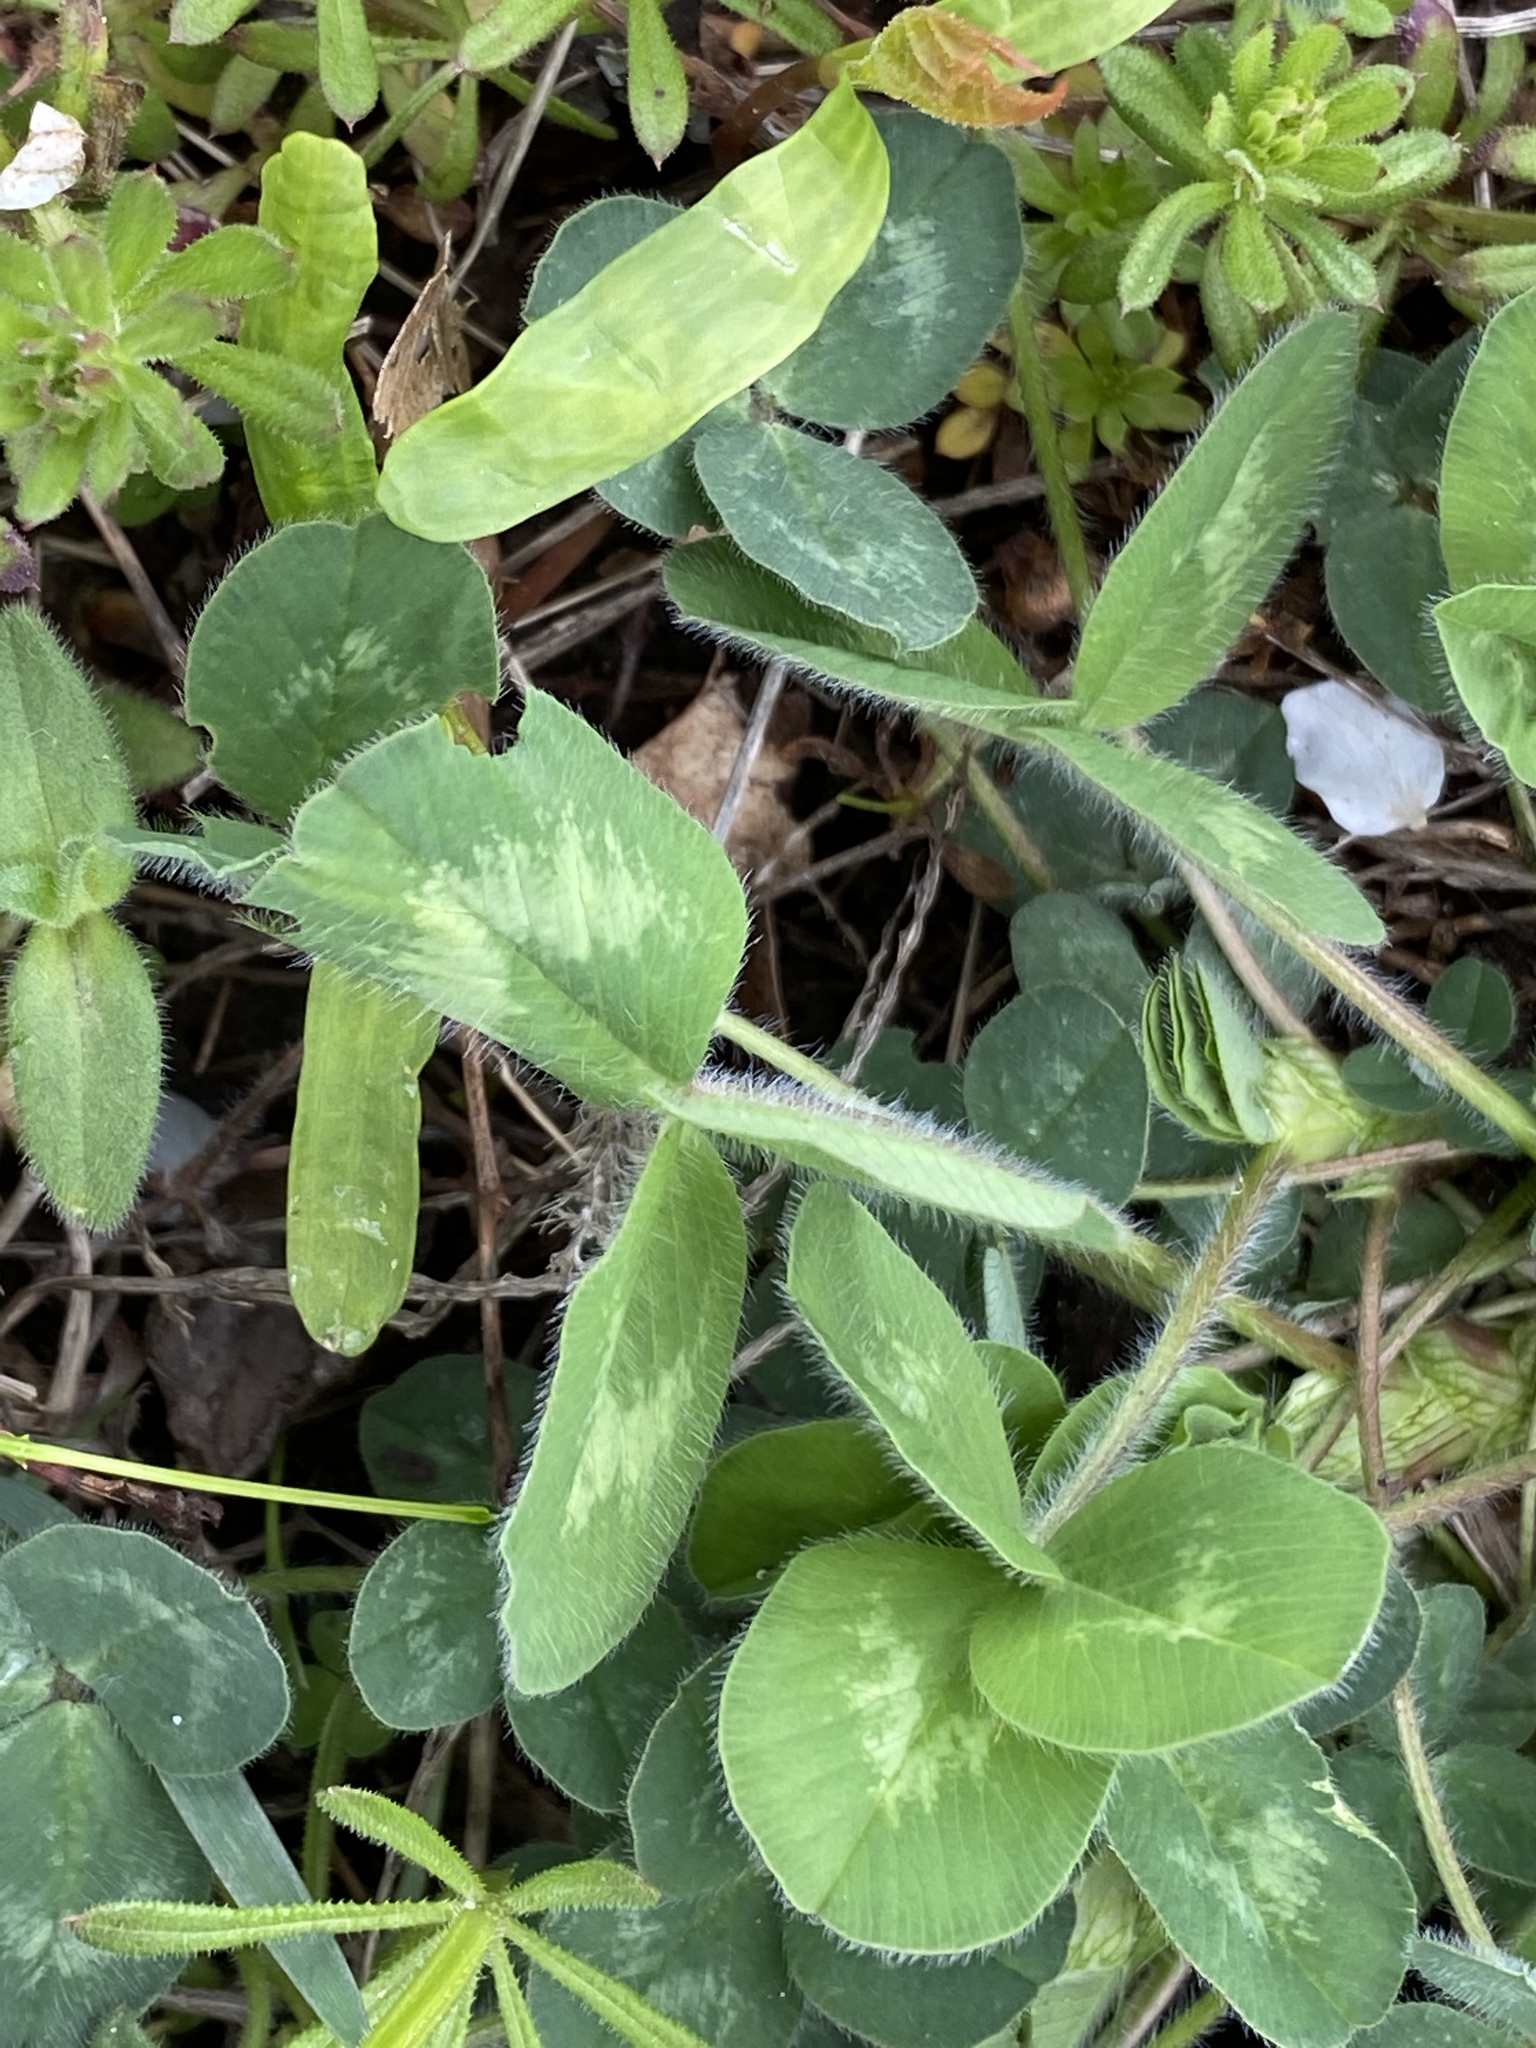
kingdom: Plantae
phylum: Tracheophyta
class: Magnoliopsida
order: Fabales
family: Fabaceae
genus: Trifolium
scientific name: Trifolium pratense
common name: Red clover
